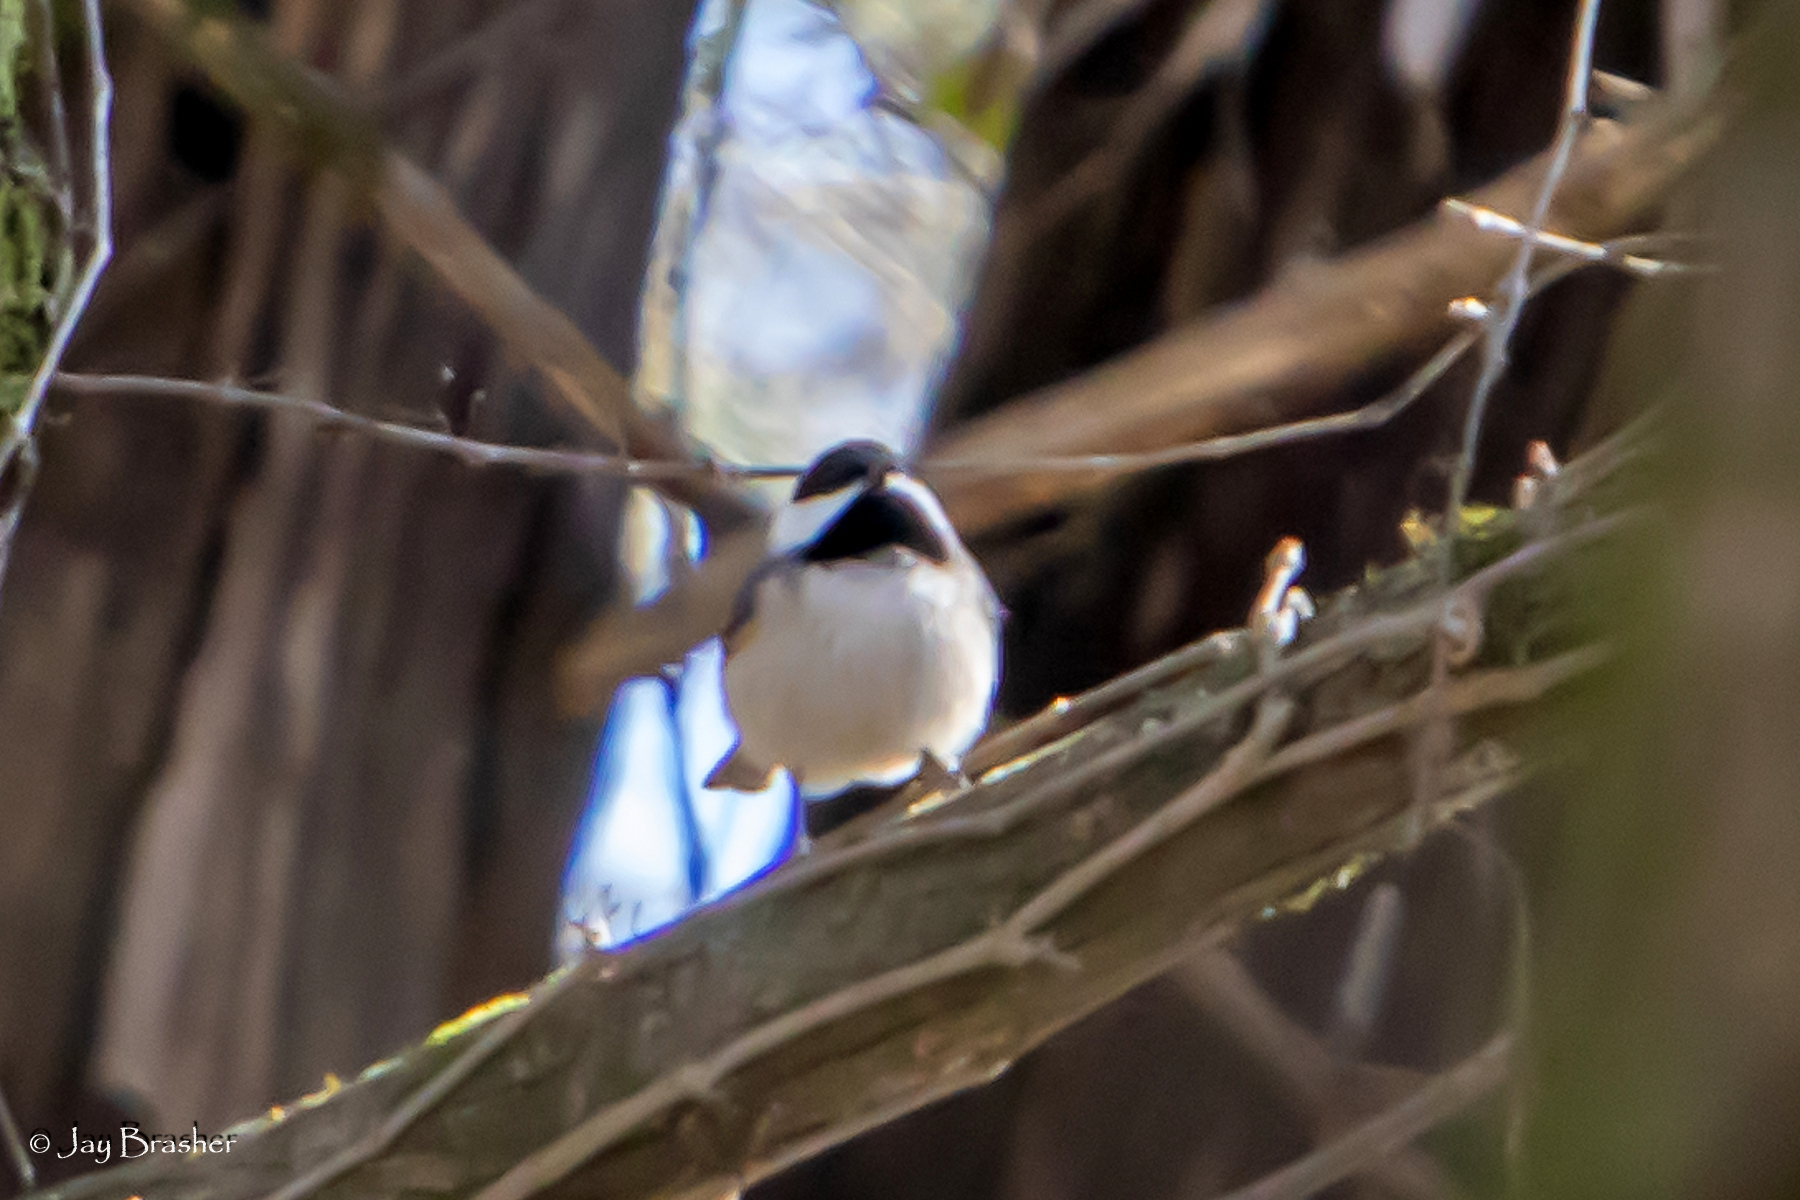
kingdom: Animalia
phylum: Chordata
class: Aves
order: Passeriformes
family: Paridae
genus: Poecile
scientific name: Poecile carolinensis
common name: Carolina chickadee
